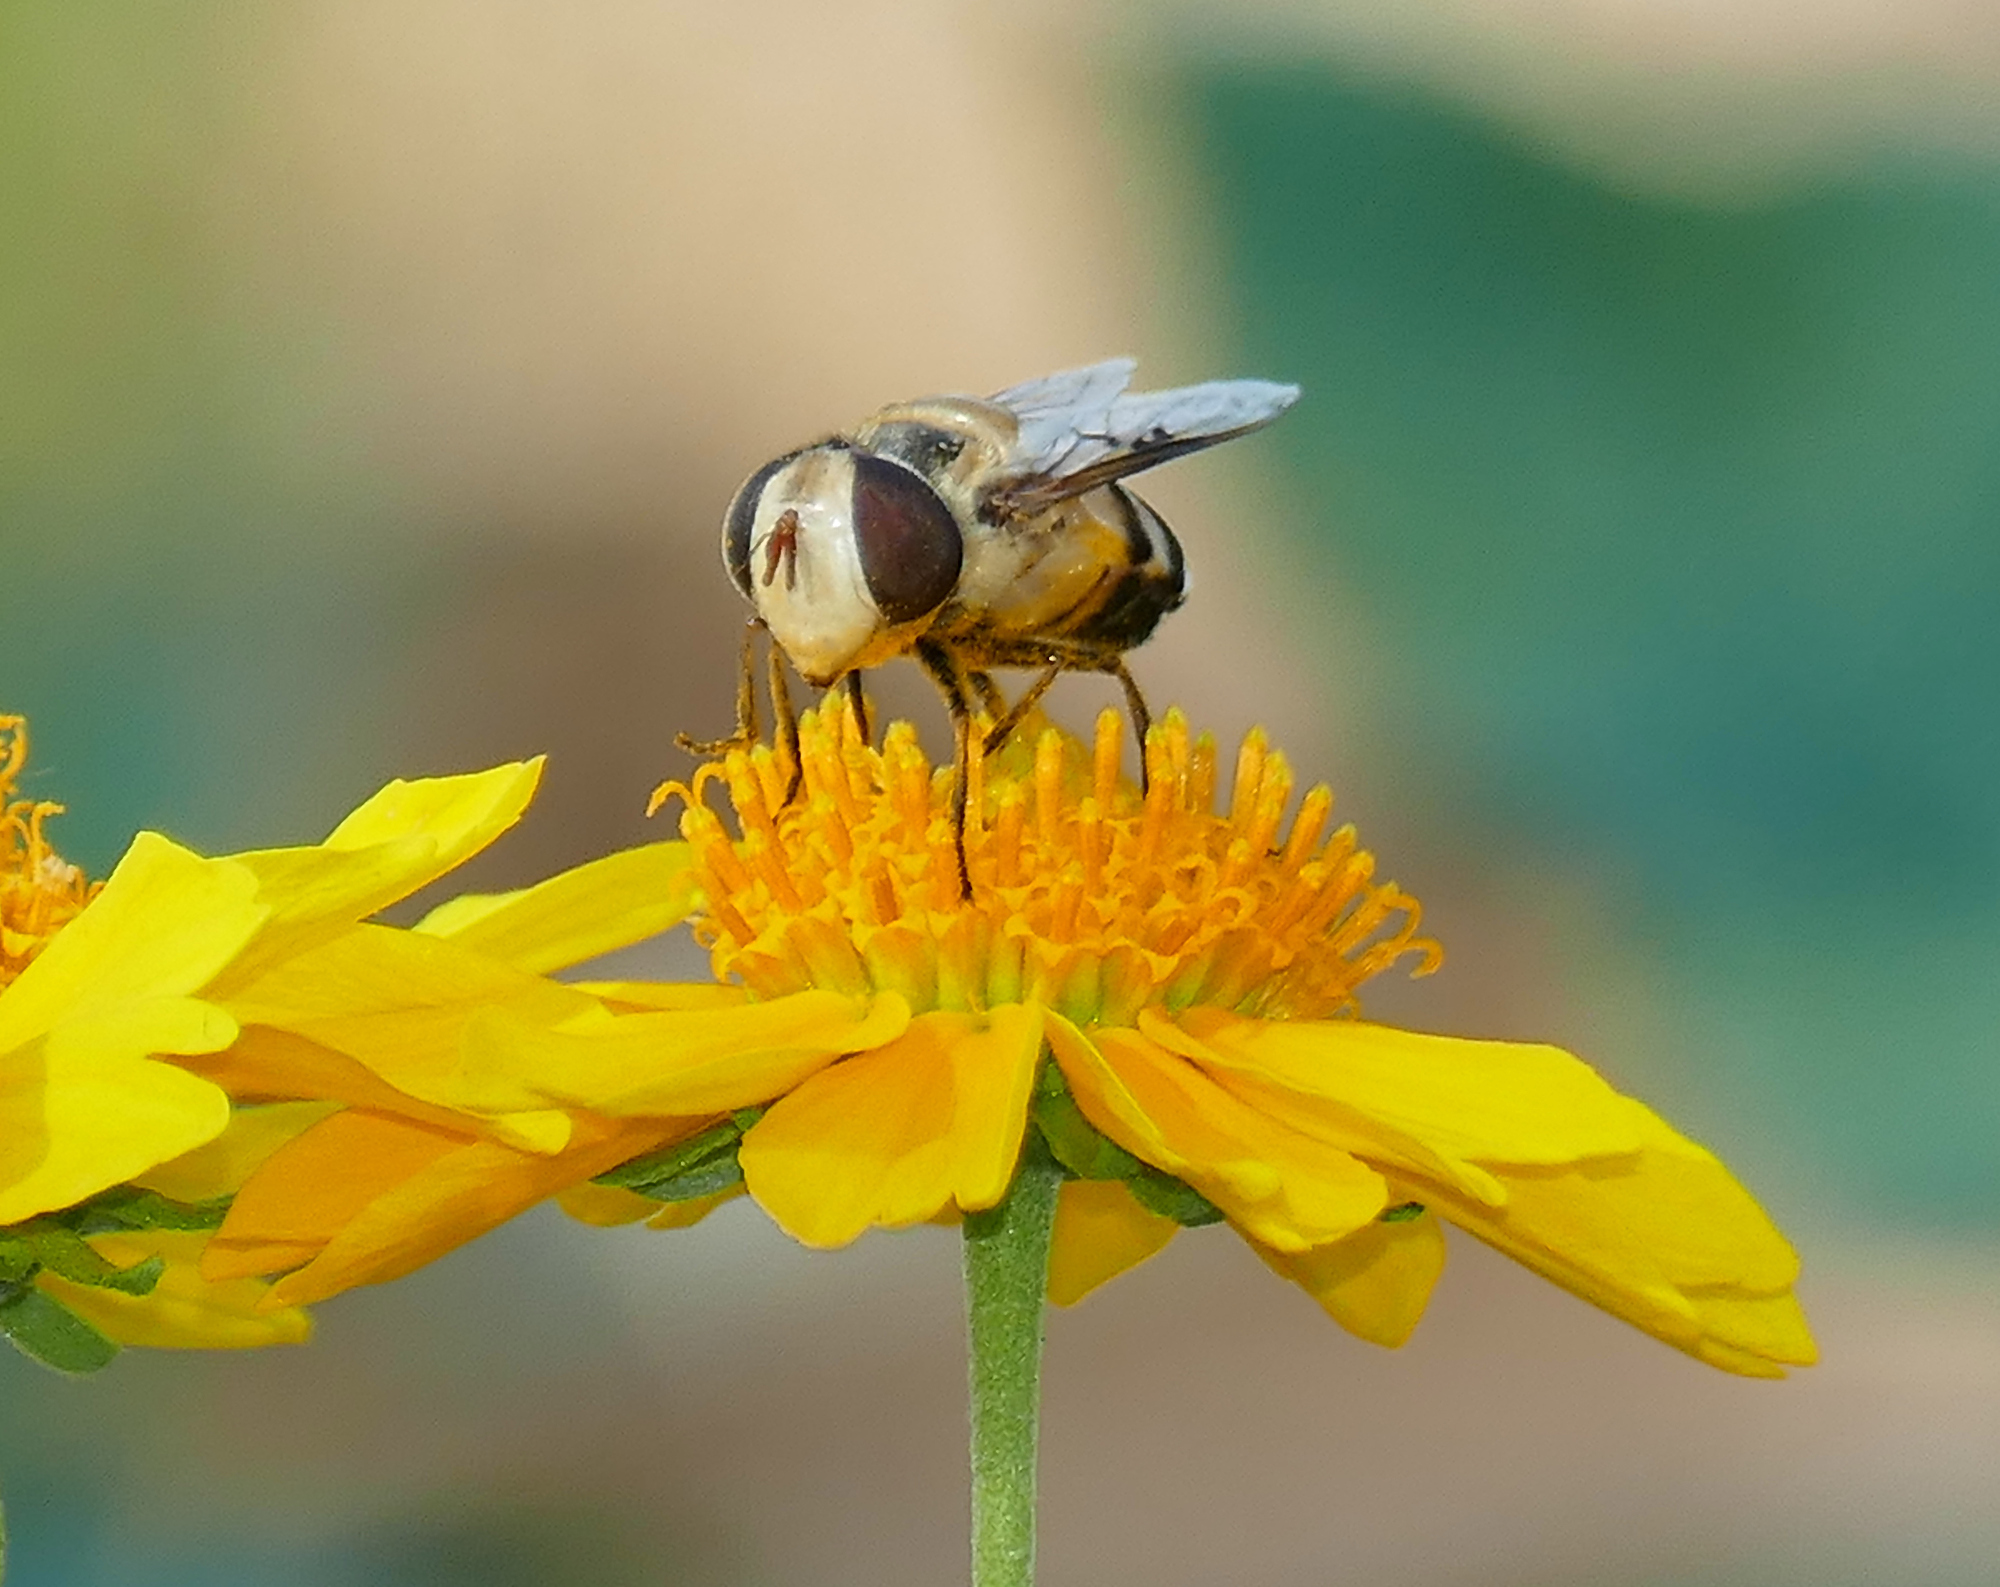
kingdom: Animalia
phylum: Arthropoda
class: Insecta
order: Diptera
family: Syrphidae
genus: Copestylum
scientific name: Copestylum apiciferum
